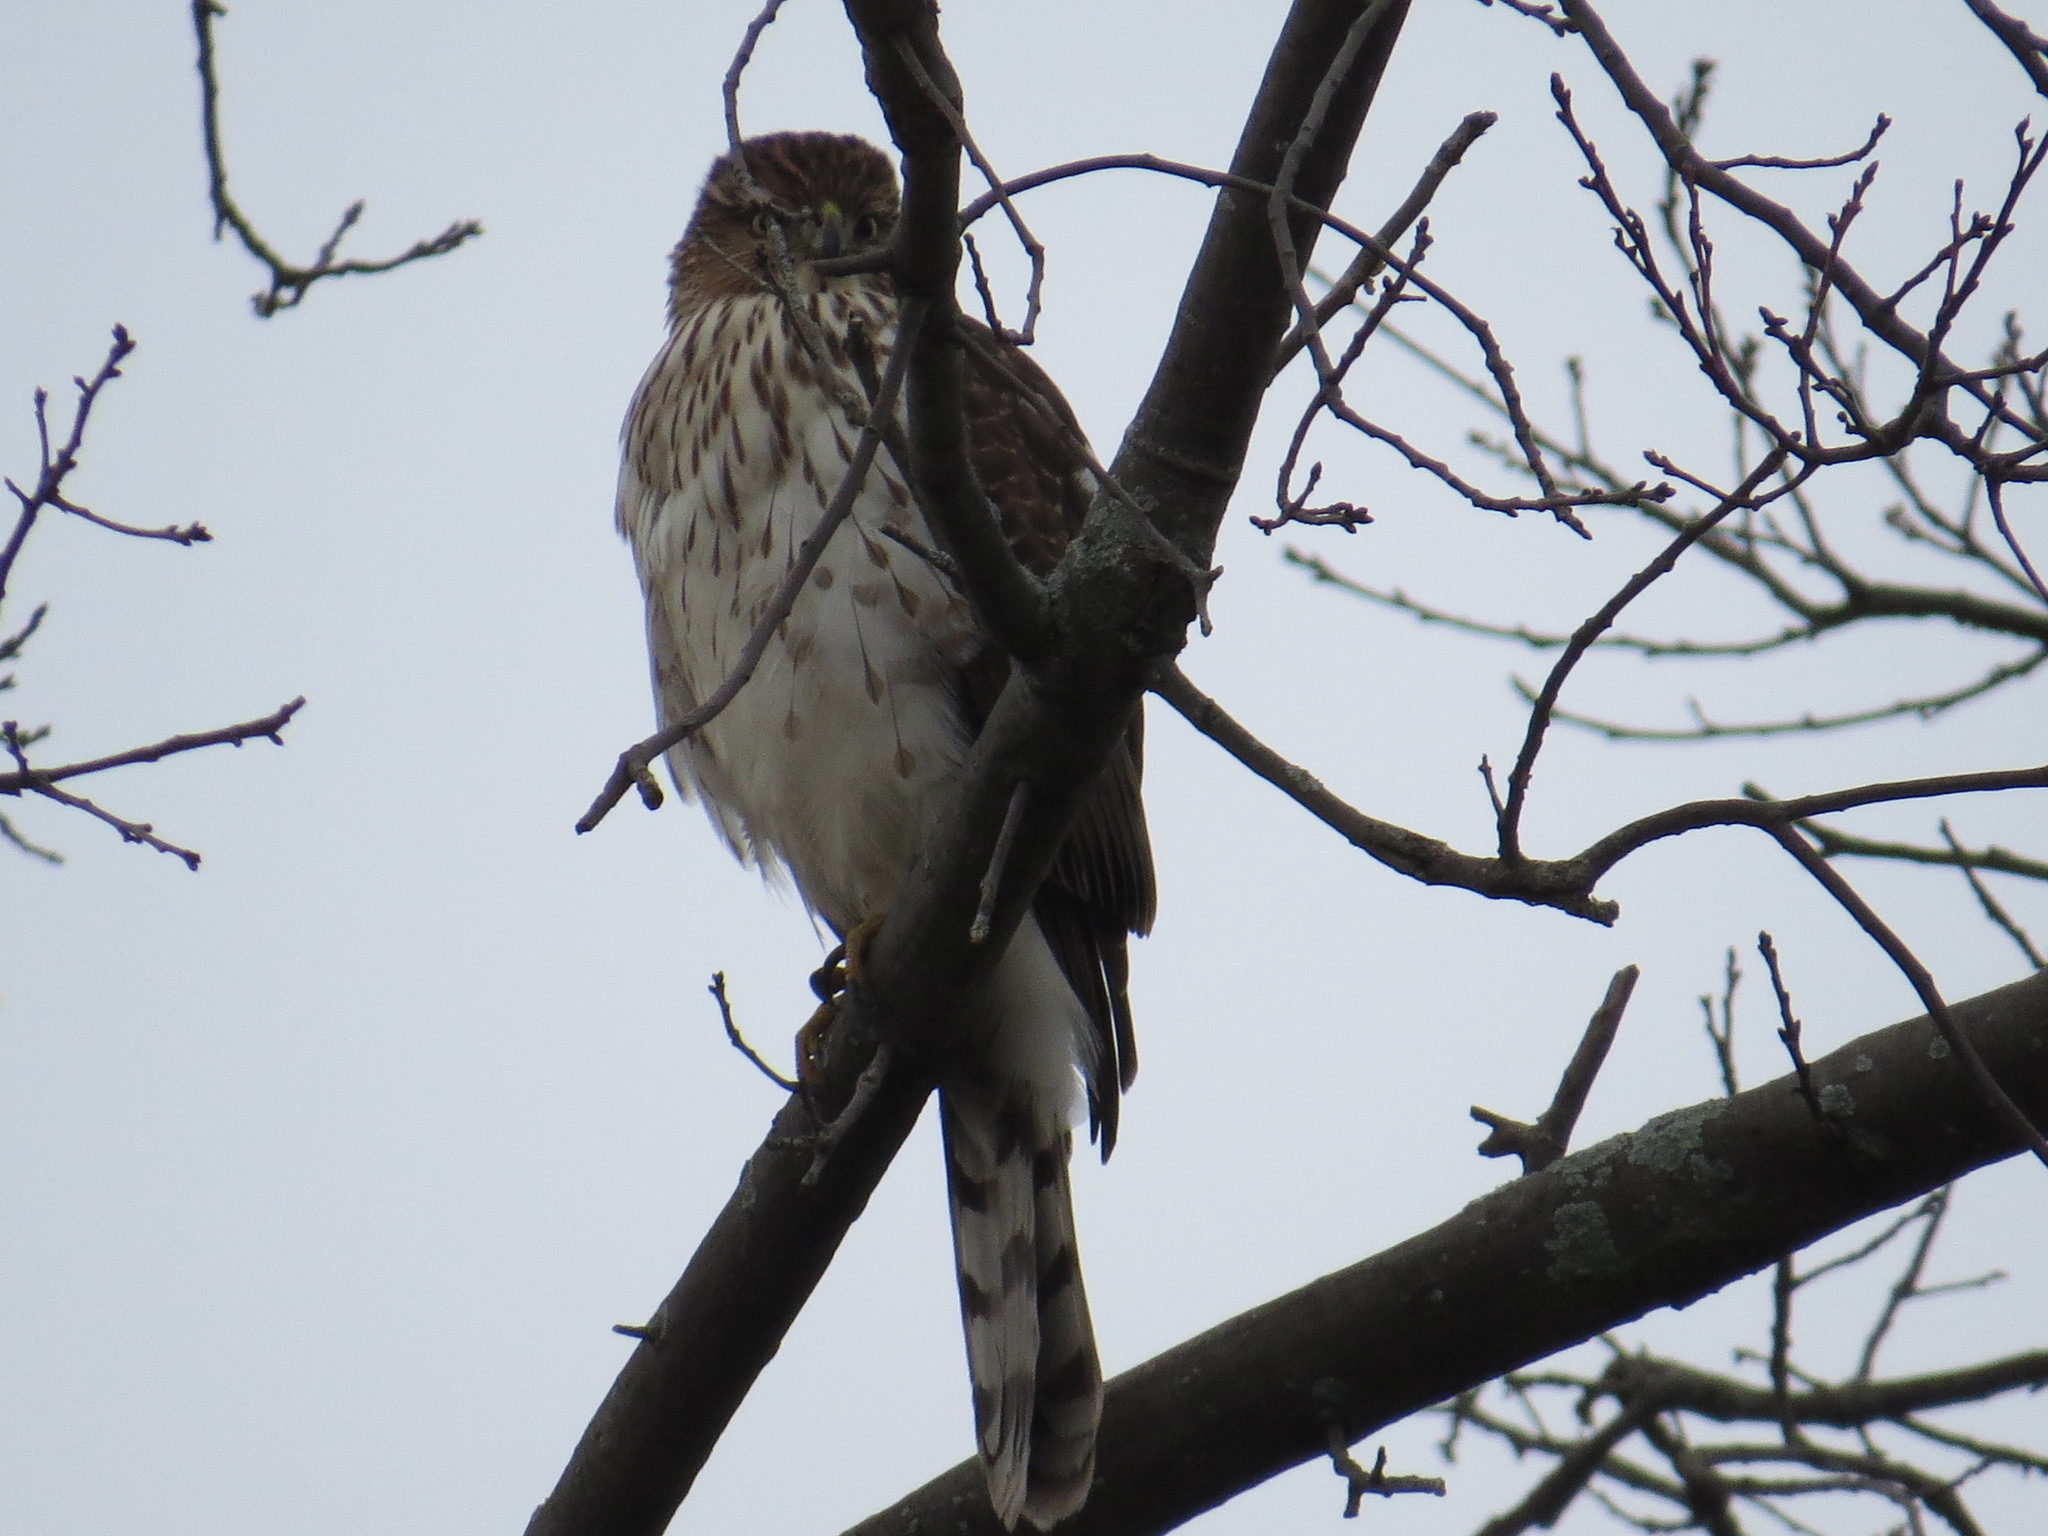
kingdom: Animalia
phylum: Chordata
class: Aves
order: Accipitriformes
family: Accipitridae
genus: Accipiter
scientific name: Accipiter cooperii
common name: Cooper's hawk
